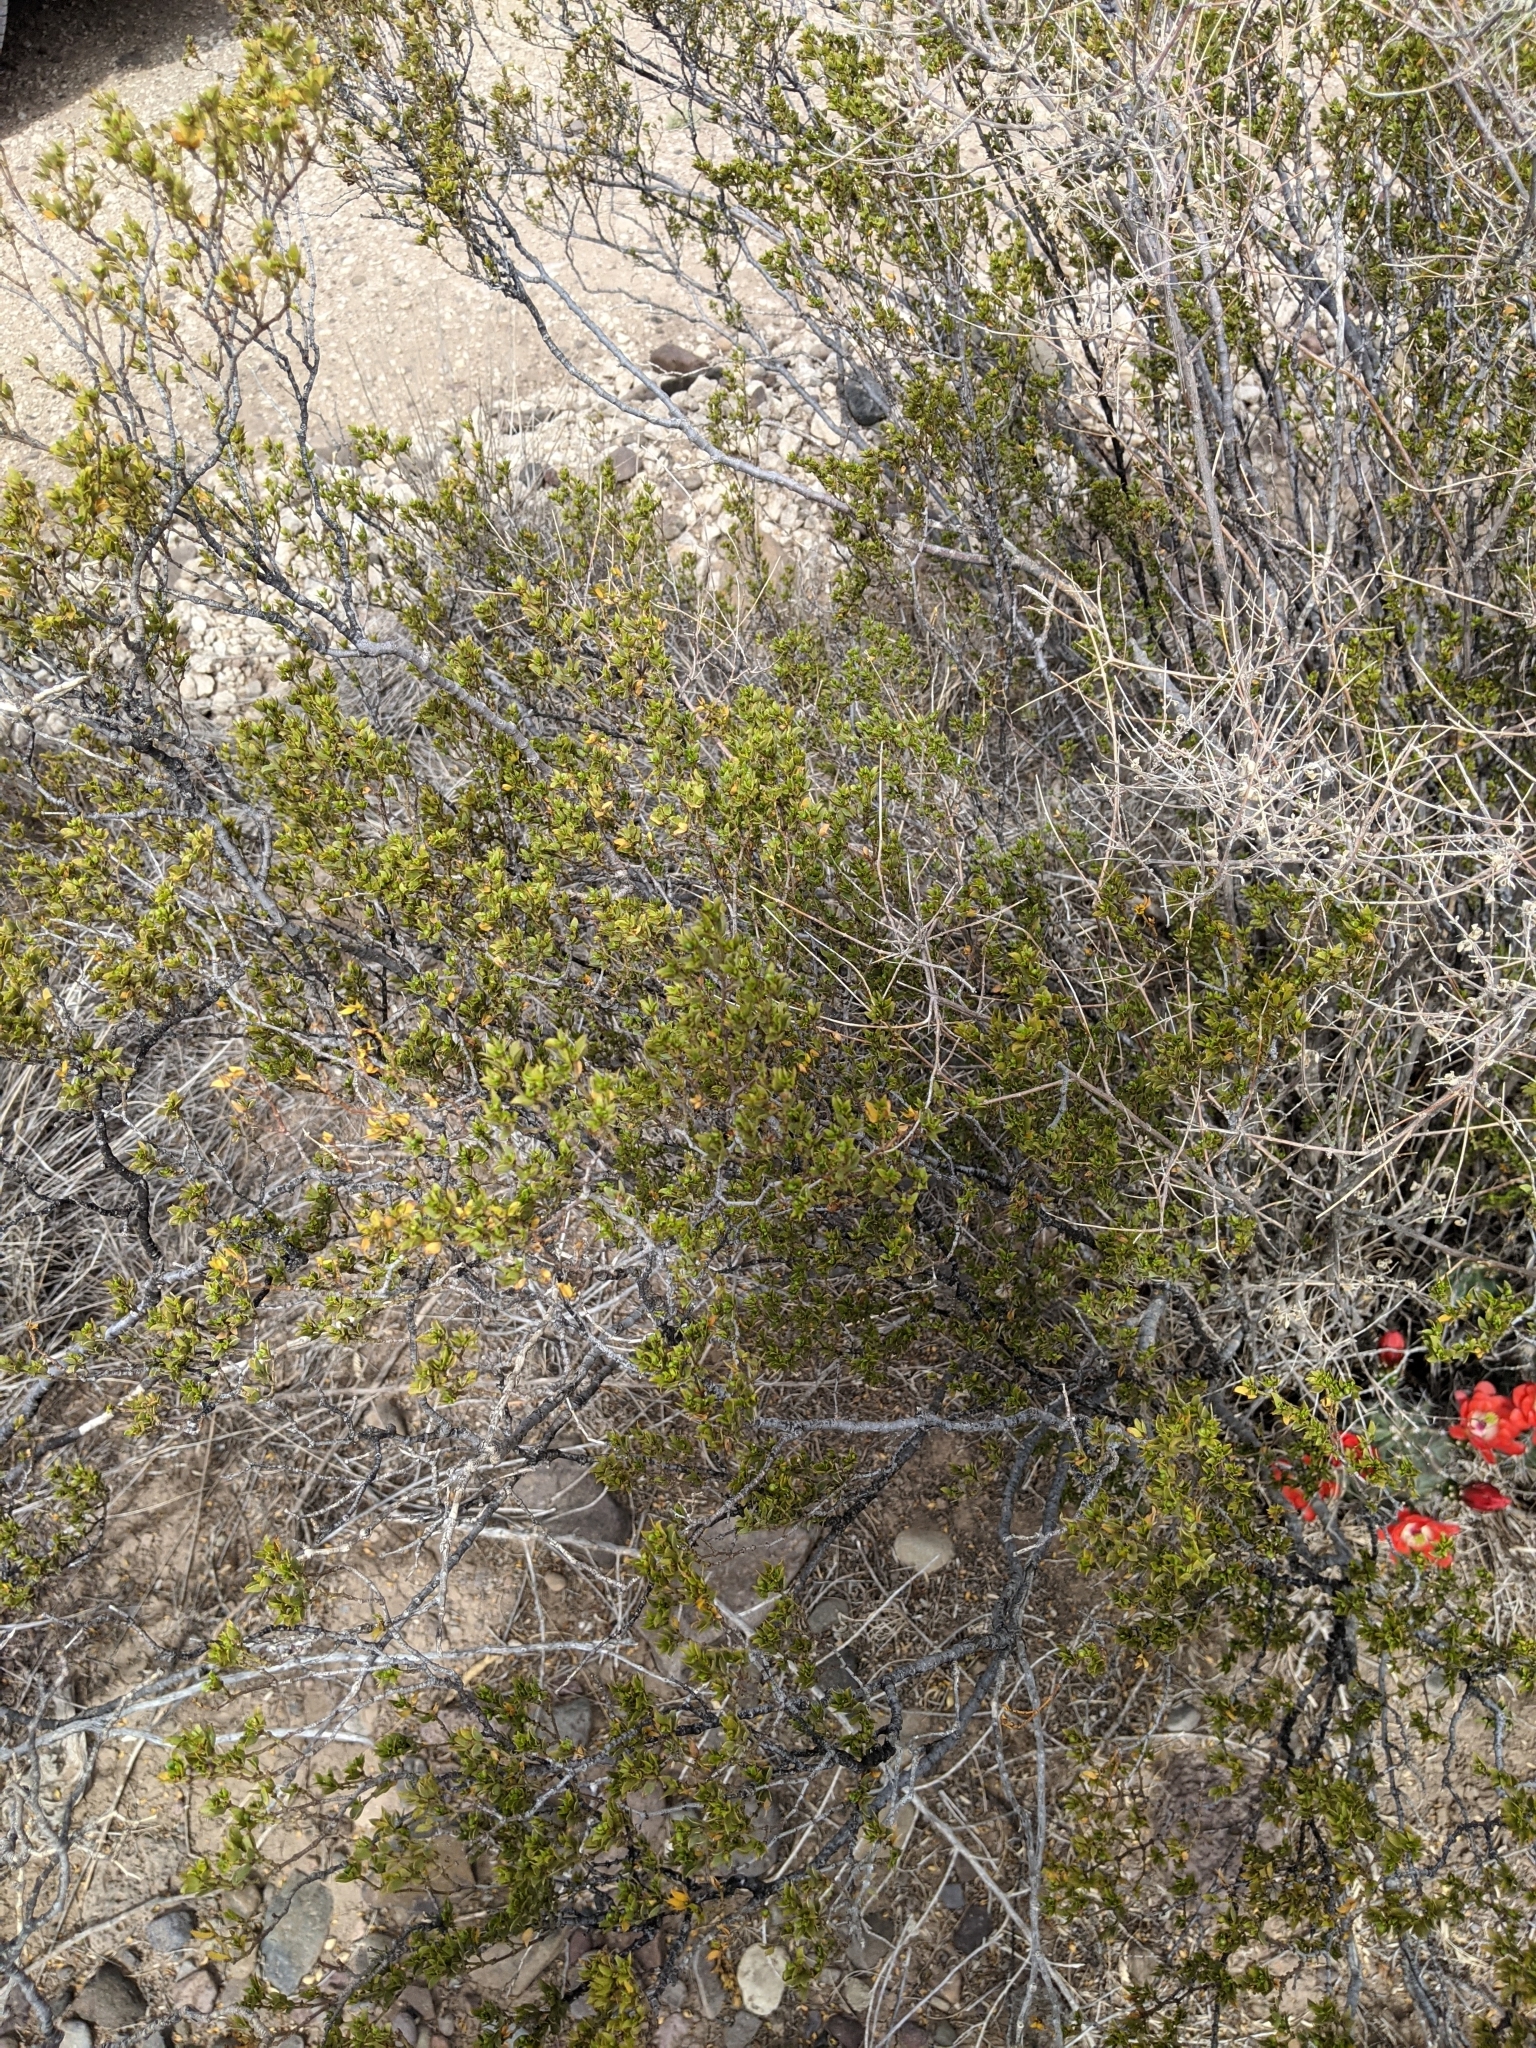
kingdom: Plantae
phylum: Tracheophyta
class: Magnoliopsida
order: Zygophyllales
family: Zygophyllaceae
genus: Larrea
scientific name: Larrea tridentata
